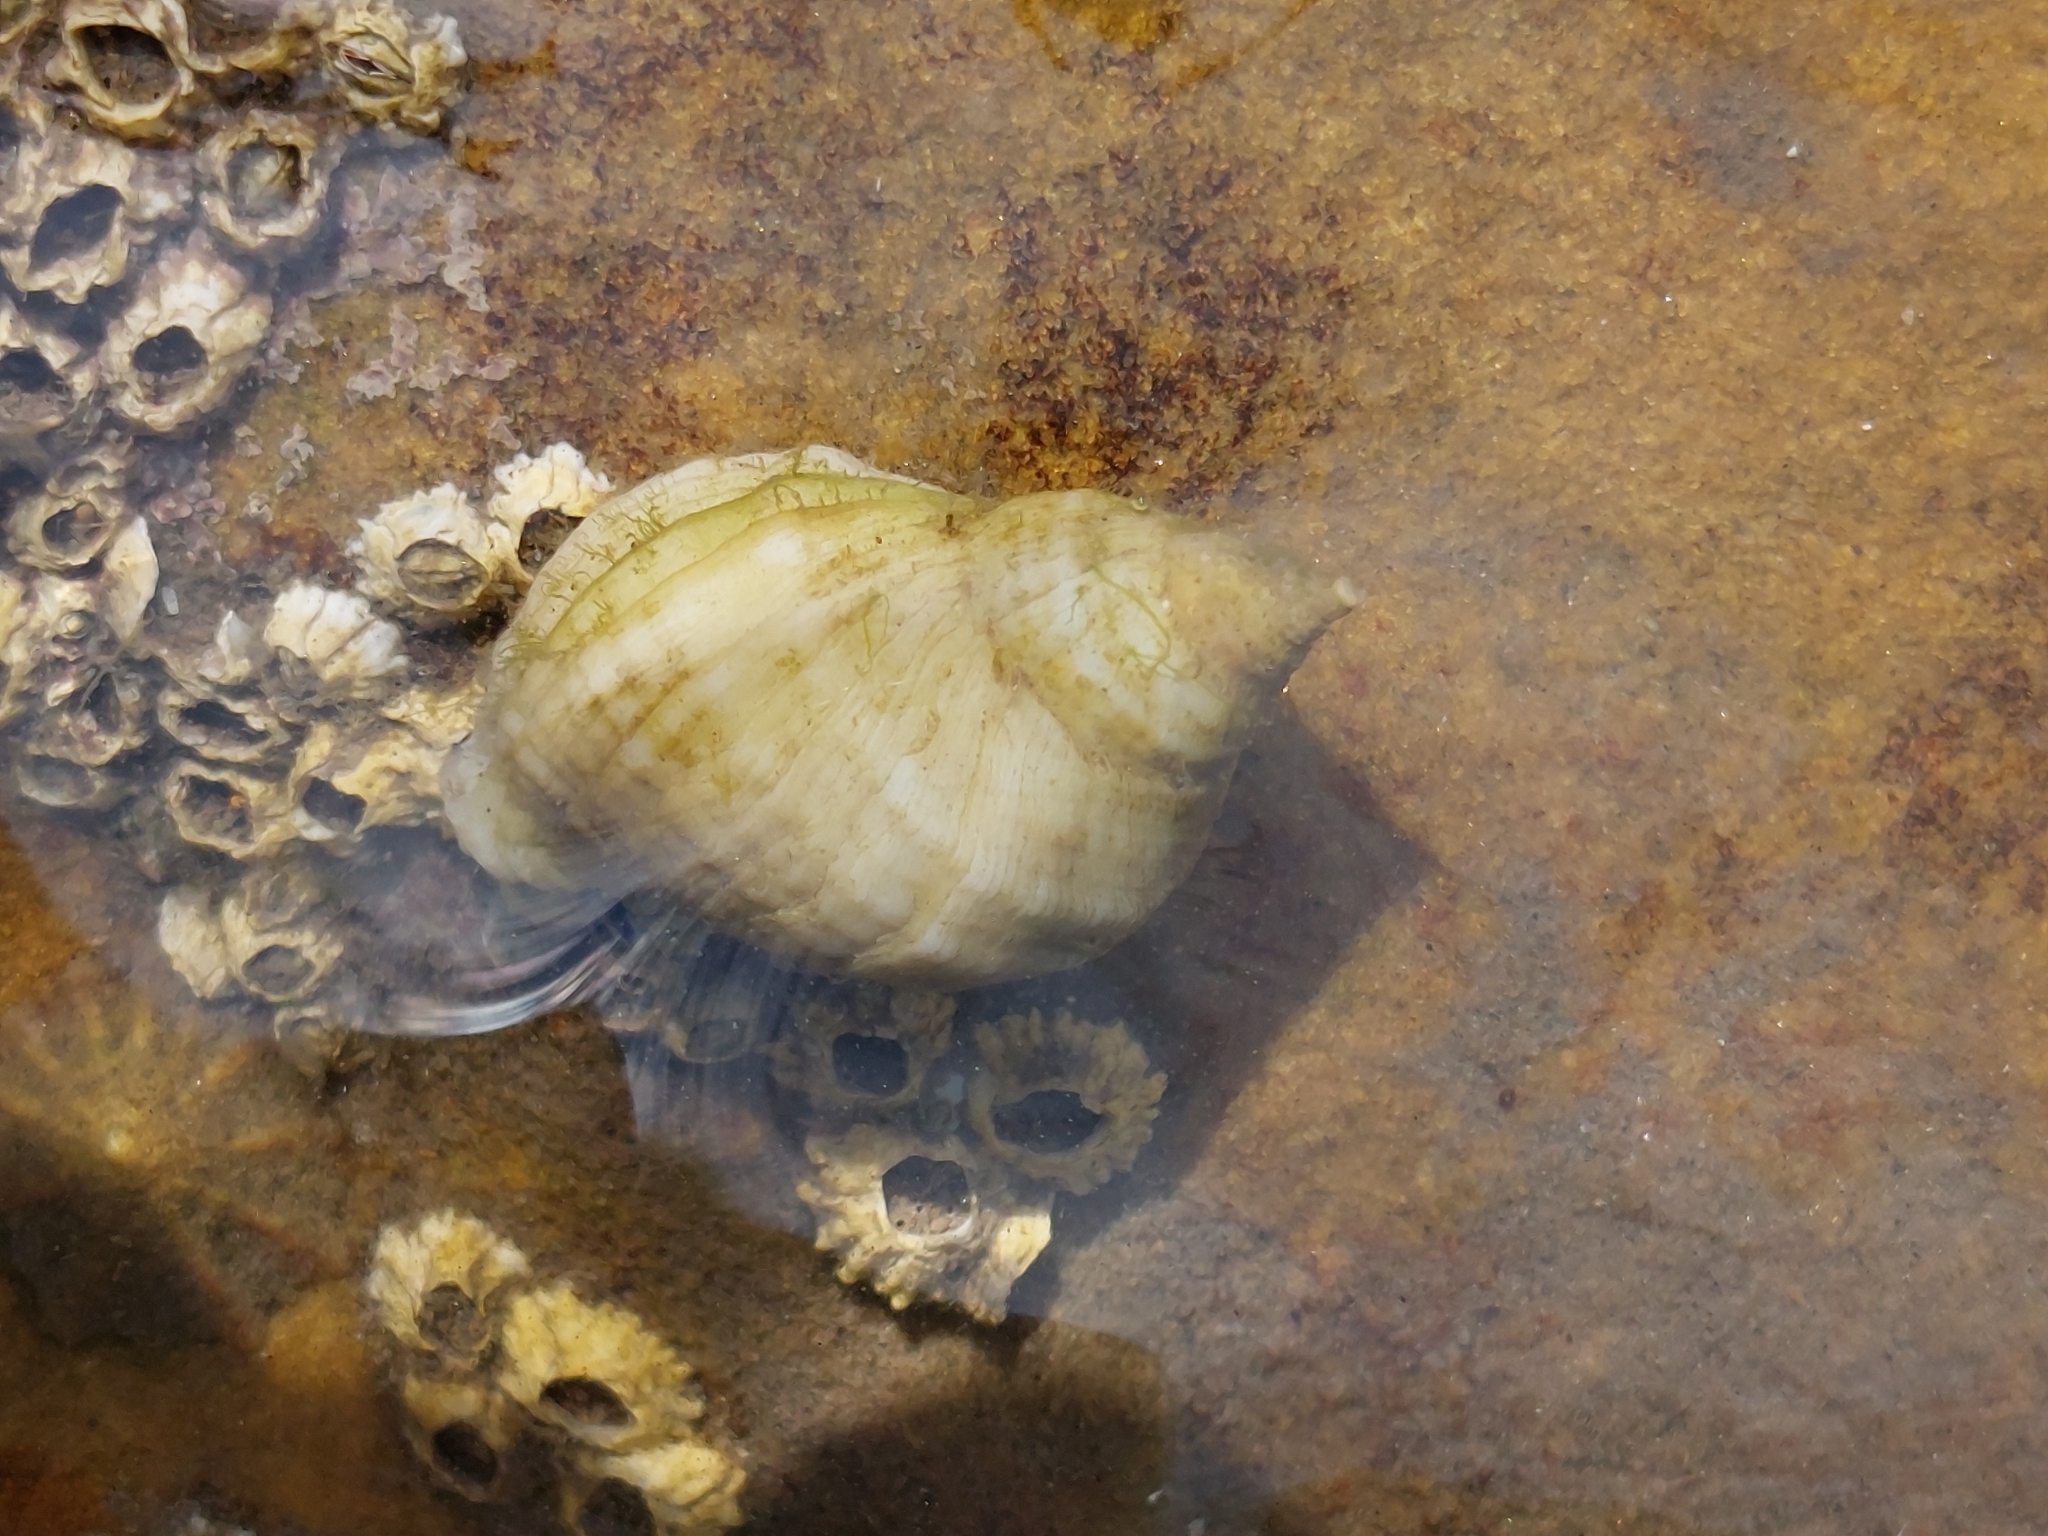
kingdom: Animalia
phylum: Mollusca
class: Gastropoda
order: Neogastropoda
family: Muricidae
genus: Nucella
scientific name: Nucella lapillus
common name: Dog whelk
